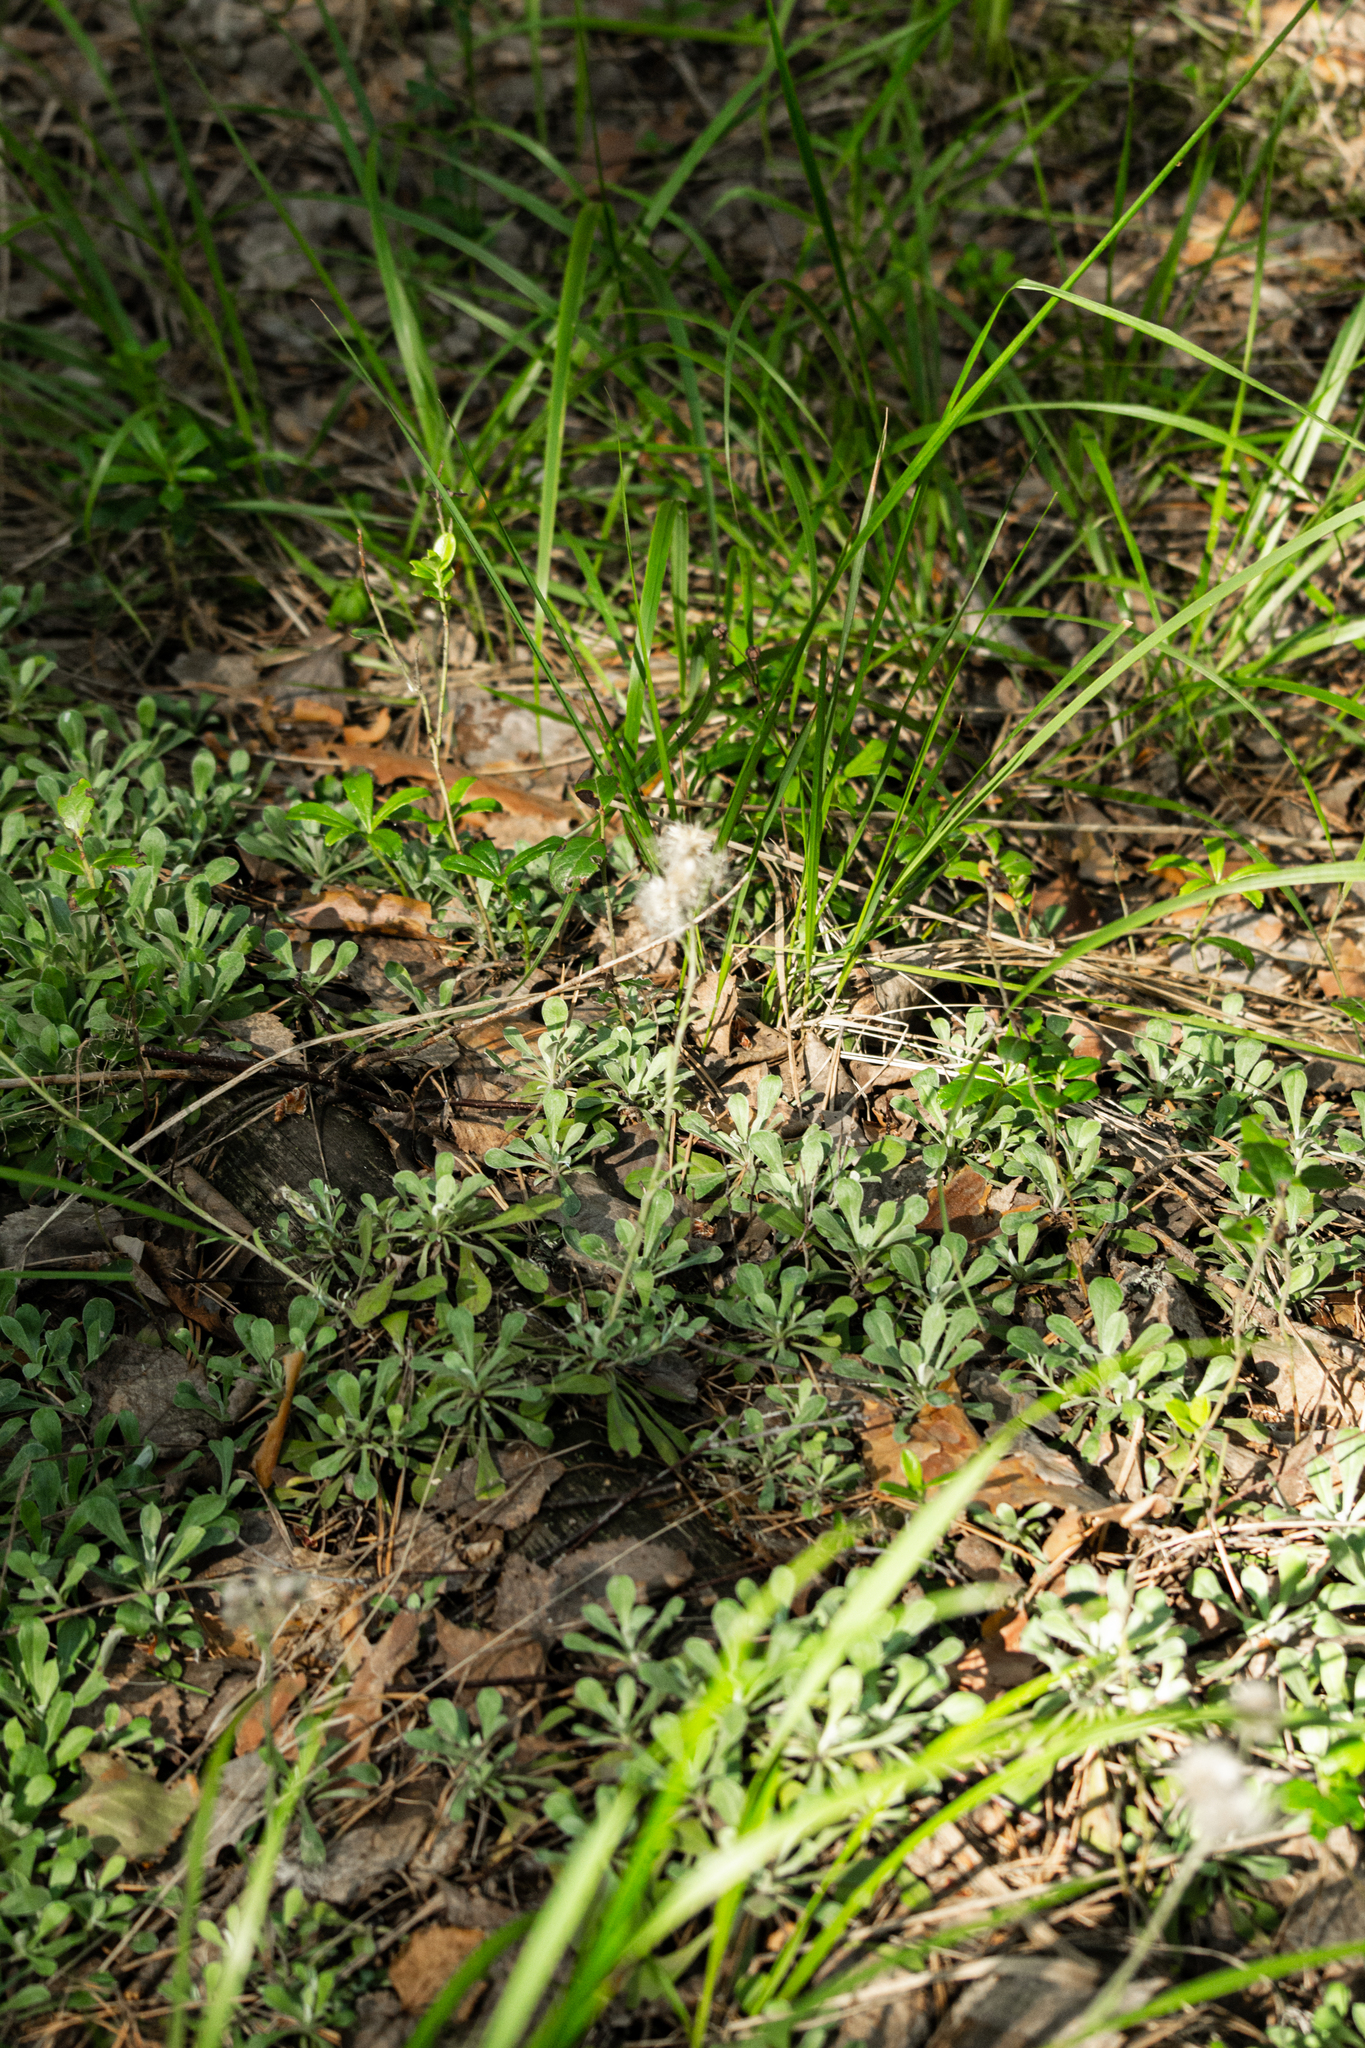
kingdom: Plantae
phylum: Tracheophyta
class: Magnoliopsida
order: Asterales
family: Asteraceae
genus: Antennaria
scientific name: Antennaria dioica
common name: Mountain everlasting
